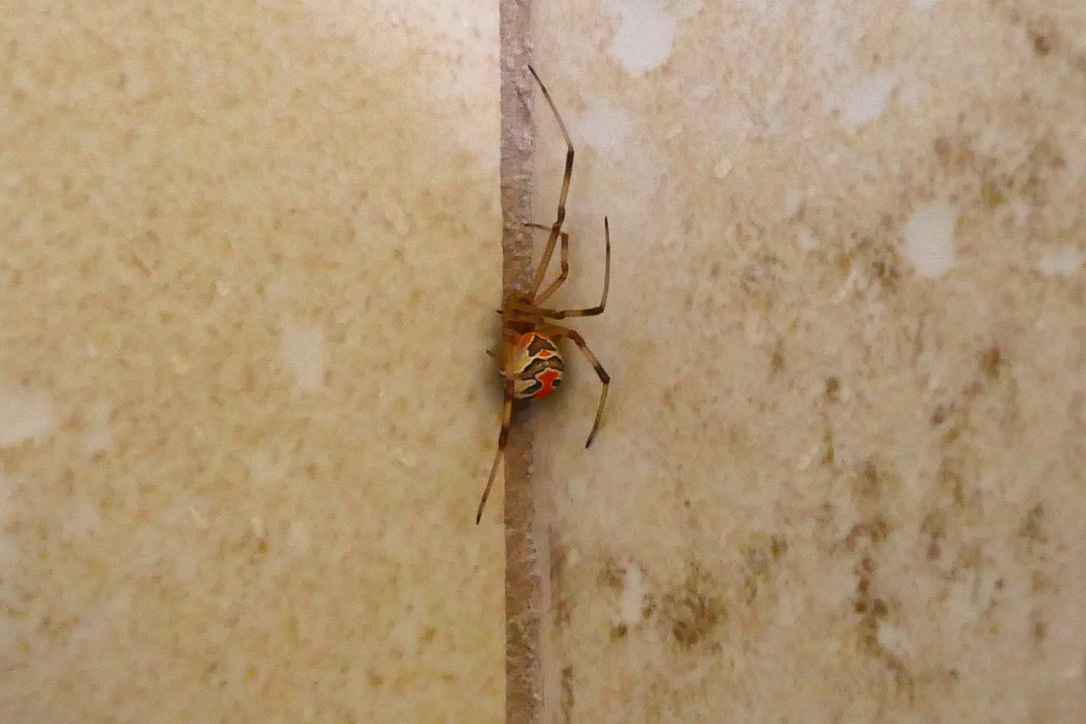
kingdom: Animalia
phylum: Arthropoda
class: Arachnida
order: Araneae
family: Theridiidae
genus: Latrodectus
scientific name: Latrodectus hasselti
